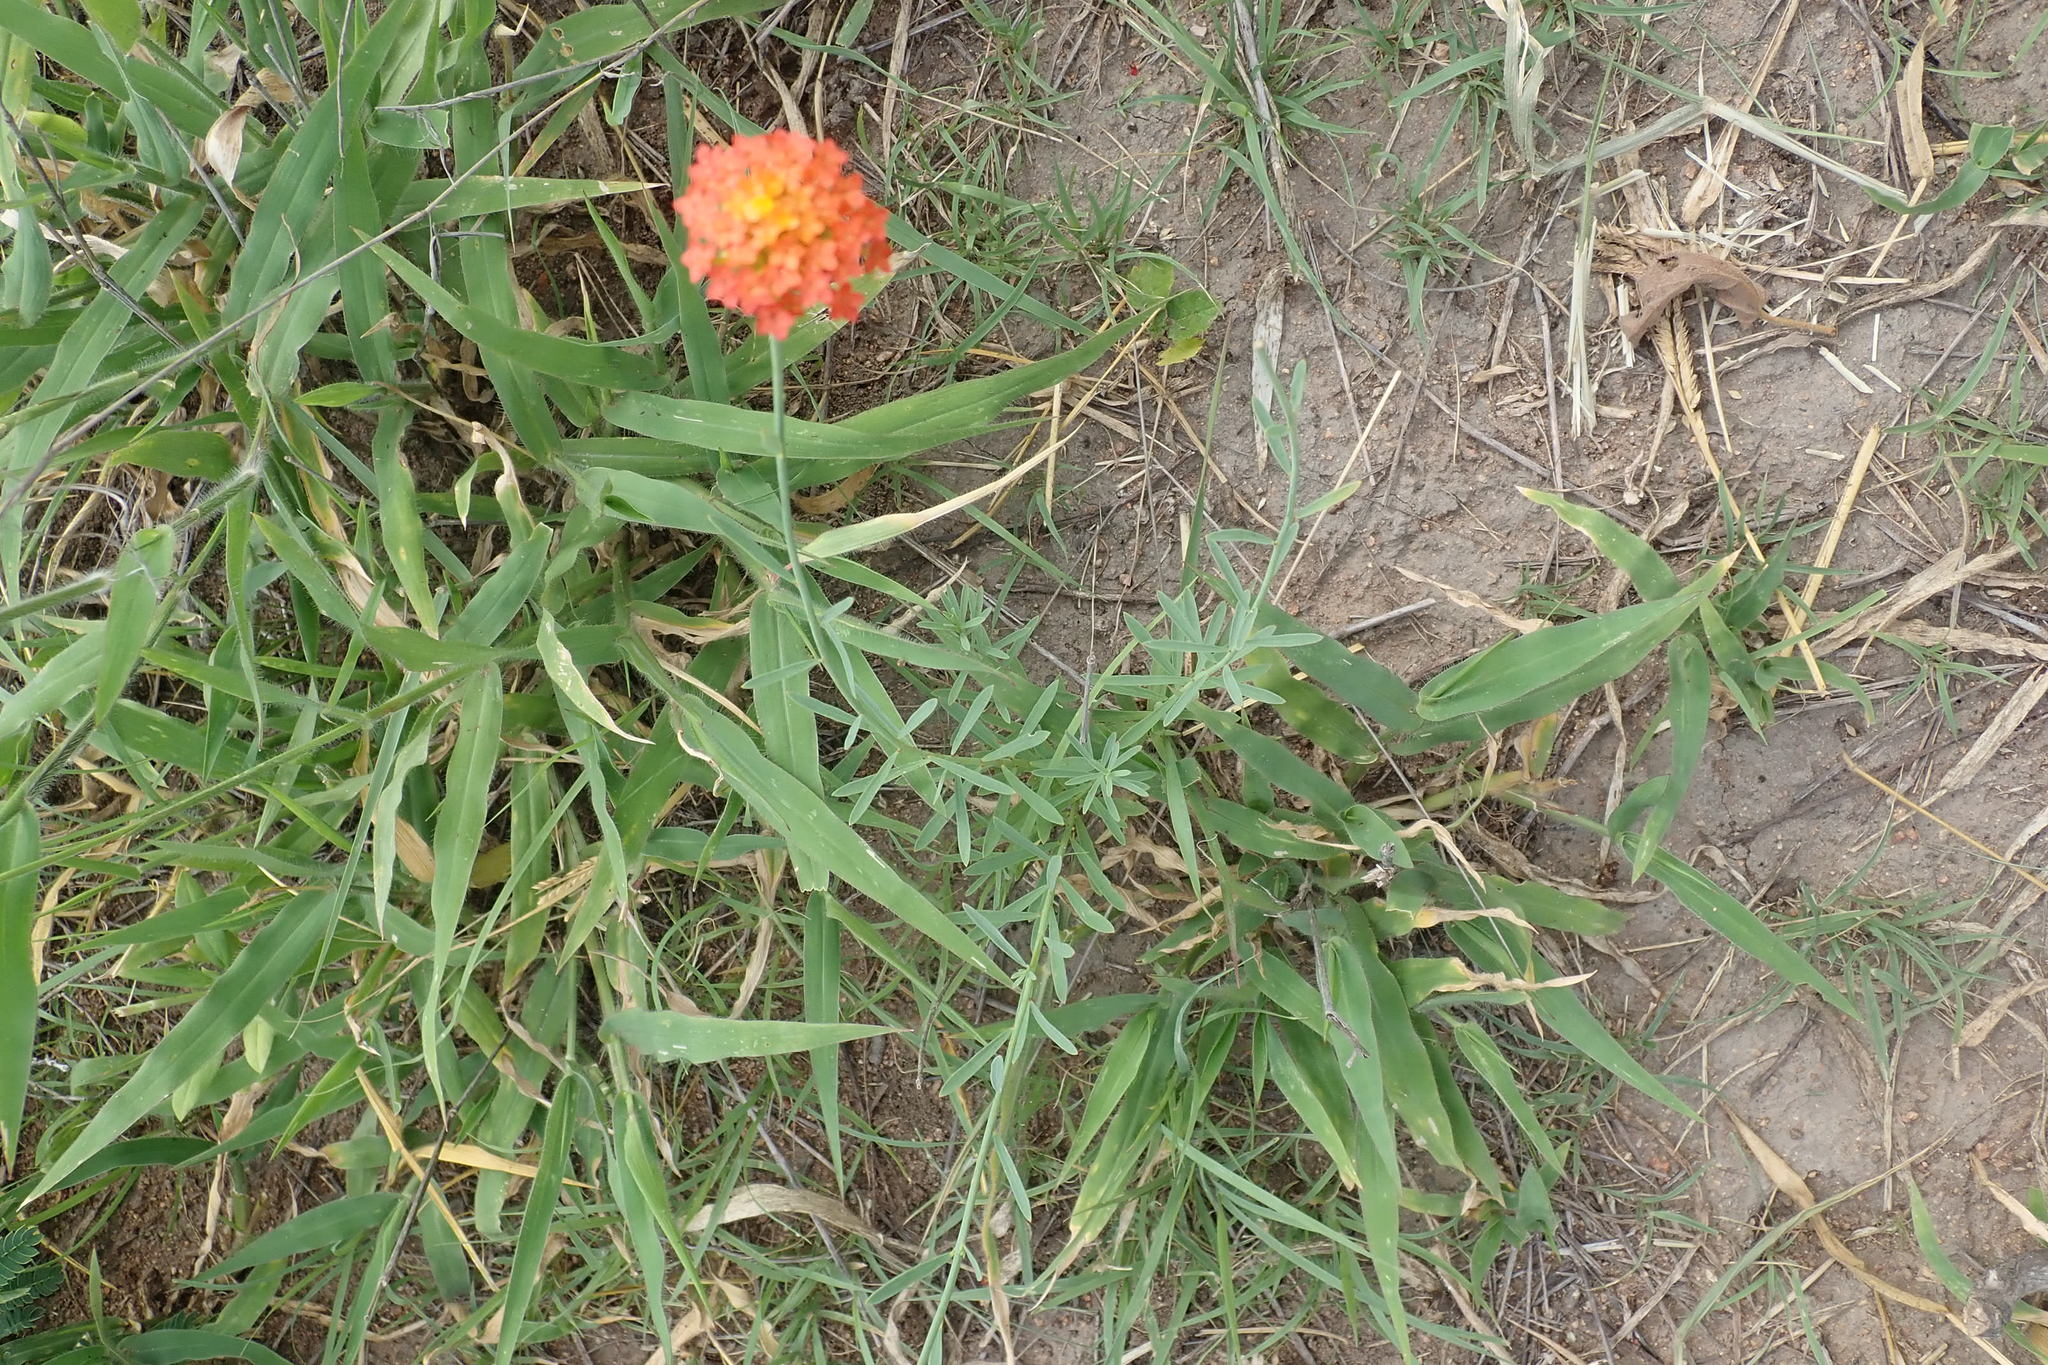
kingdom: Plantae
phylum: Tracheophyta
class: Magnoliopsida
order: Malvales
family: Thymelaeaceae
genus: Gnidia
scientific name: Gnidia rubescens
